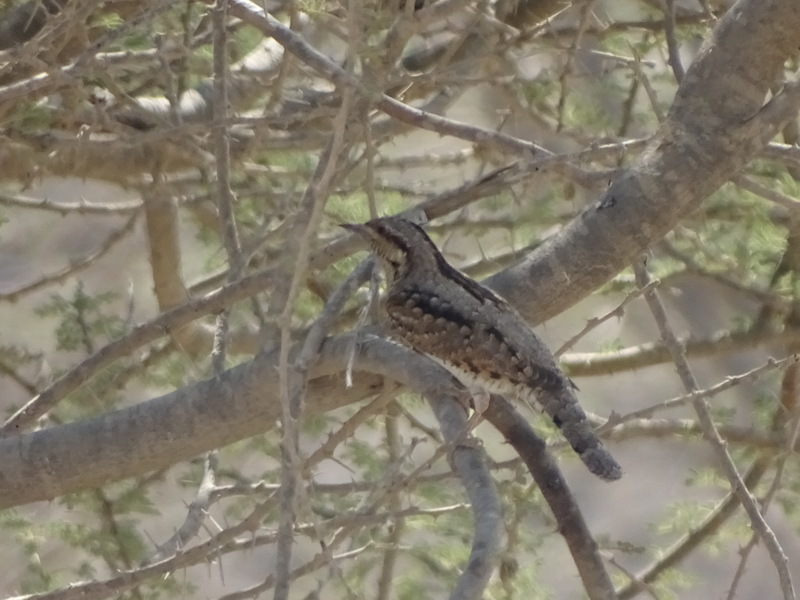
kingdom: Animalia
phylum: Chordata
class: Aves
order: Piciformes
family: Picidae
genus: Jynx
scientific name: Jynx torquilla
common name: Eurasian wryneck
